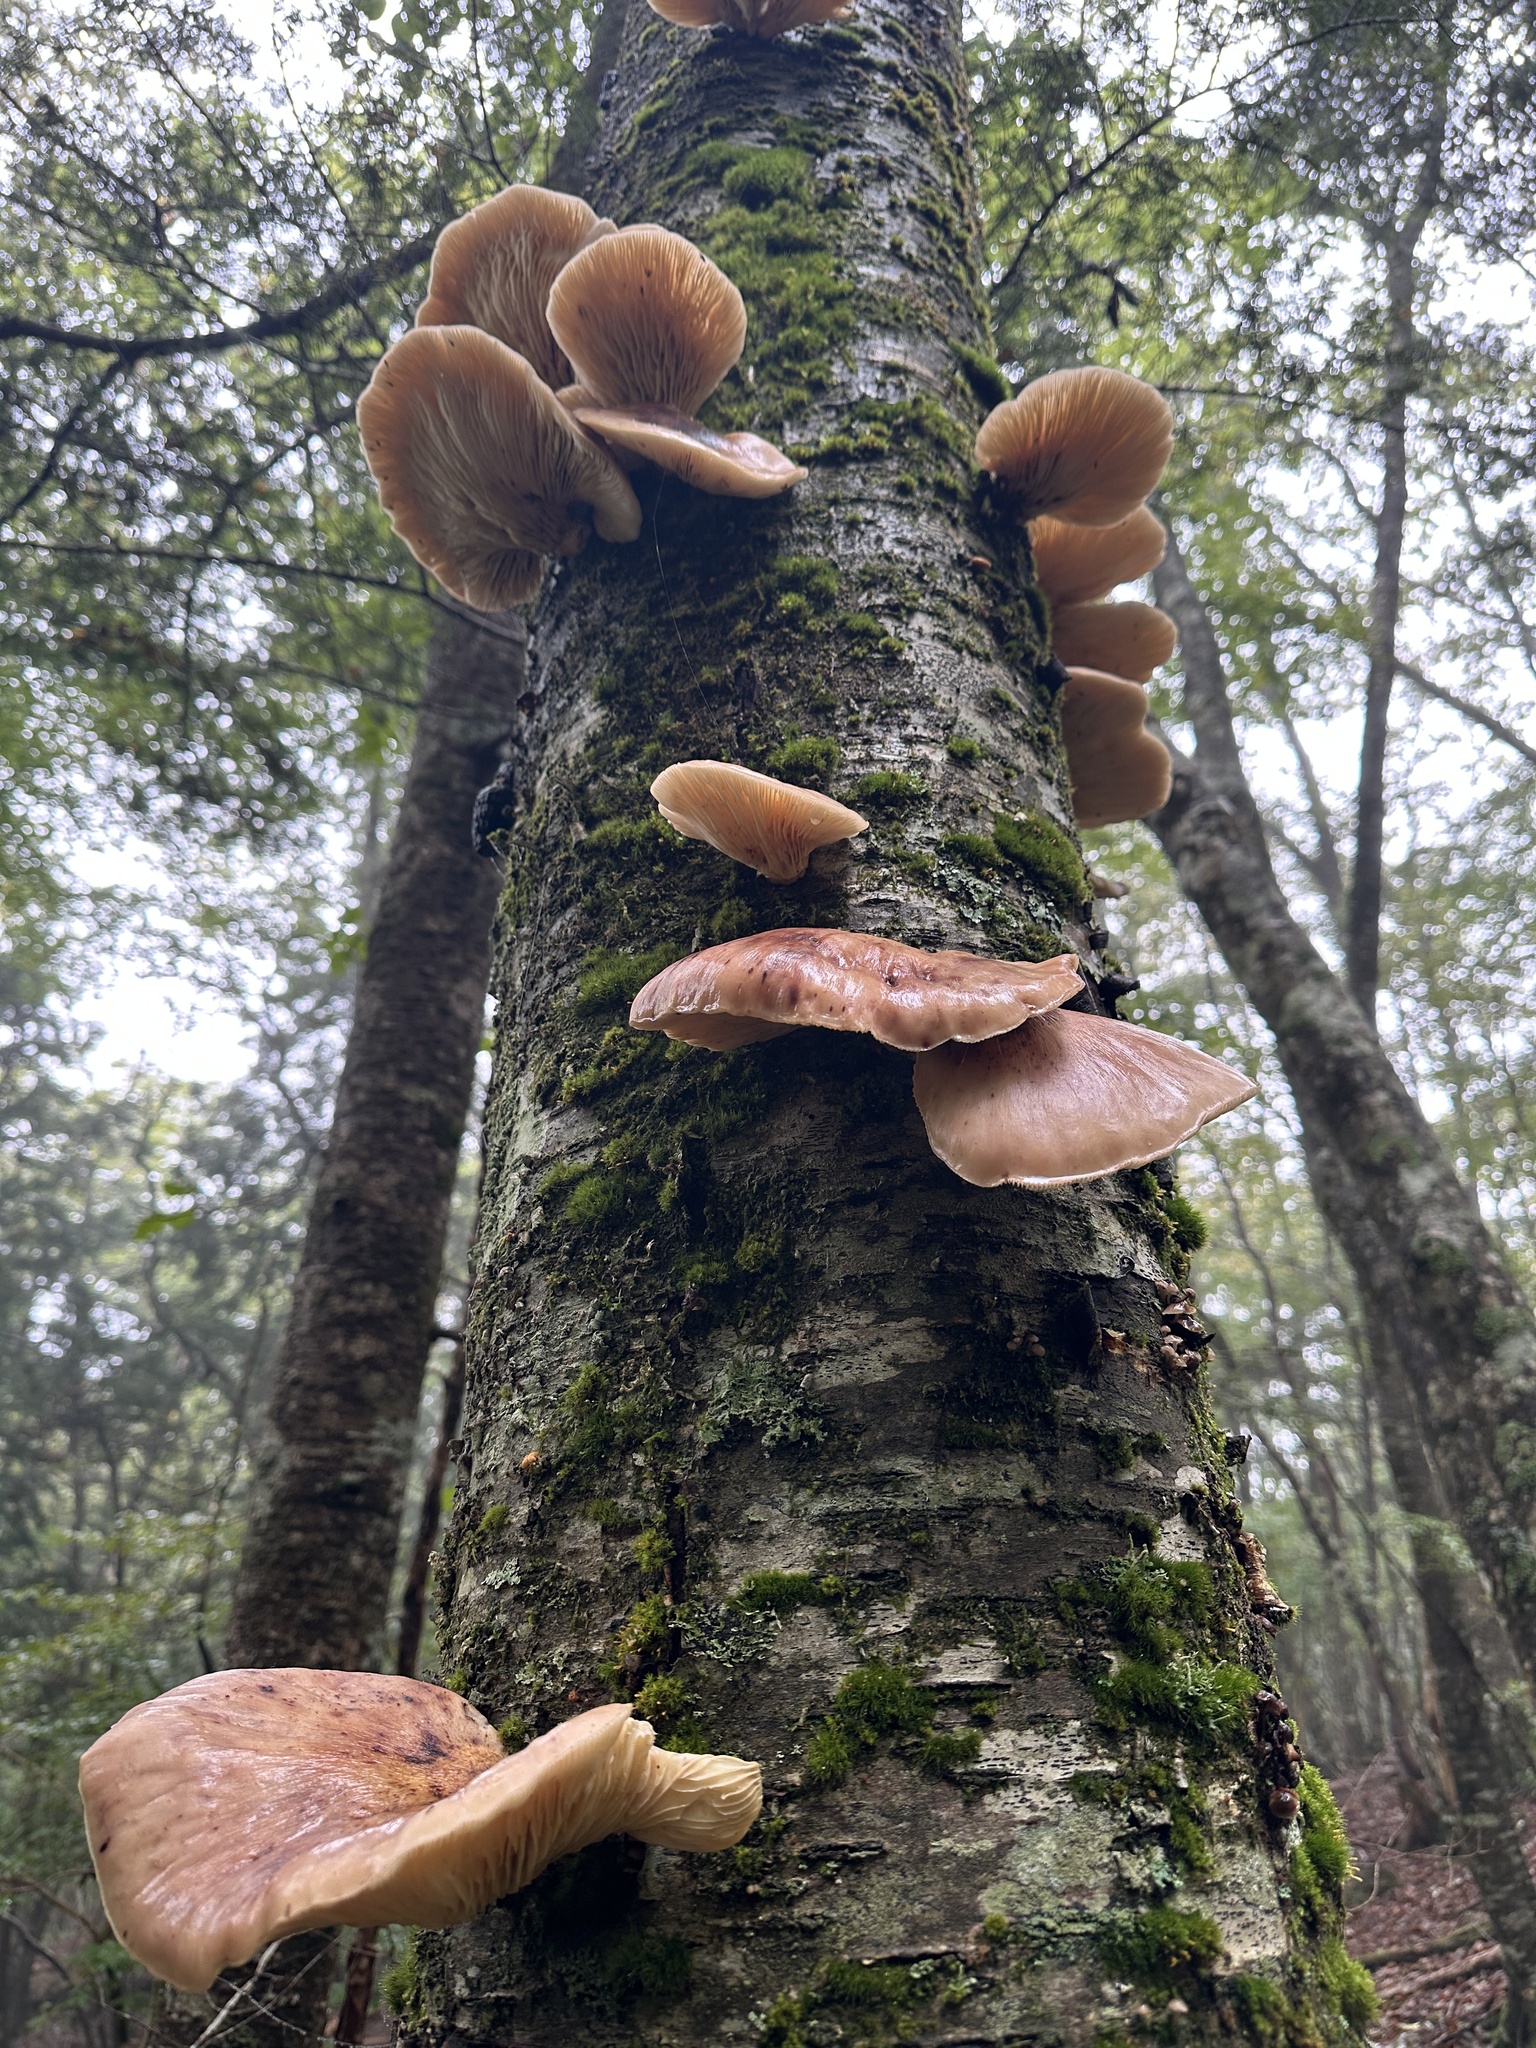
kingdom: Fungi
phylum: Basidiomycota
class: Agaricomycetes
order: Agaricales
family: Omphalotaceae
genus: Omphalotus
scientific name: Omphalotus guepiniiformis
